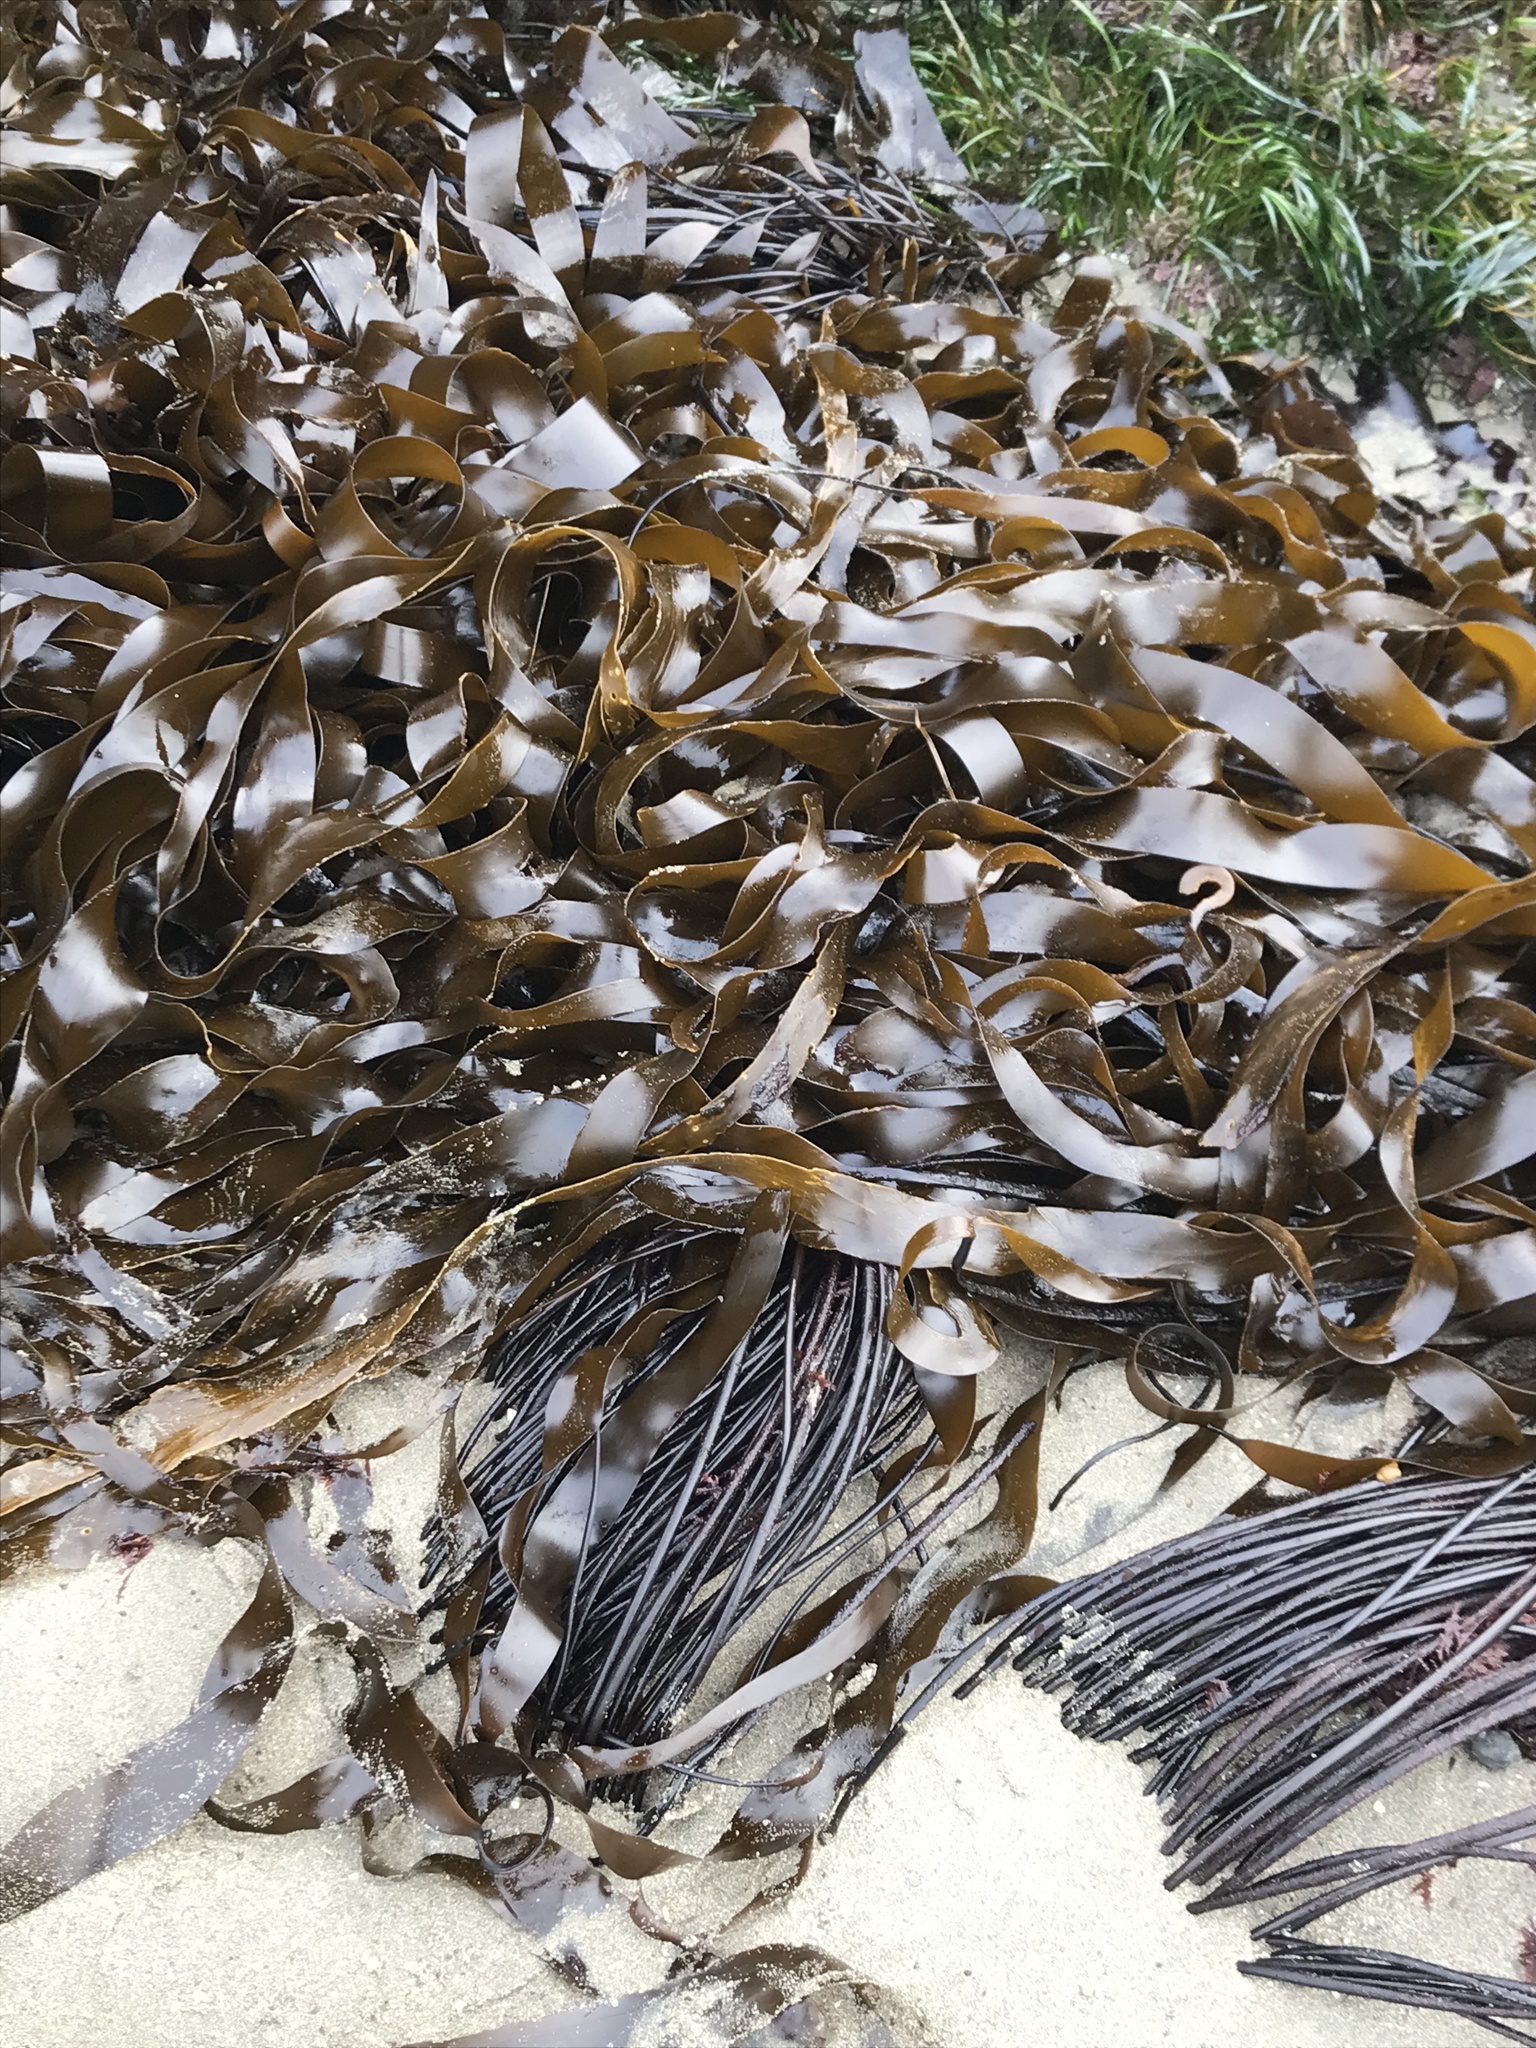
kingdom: Chromista
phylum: Ochrophyta
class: Phaeophyceae
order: Laminariales
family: Laminariaceae
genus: Laminaria
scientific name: Laminaria sinclairii
